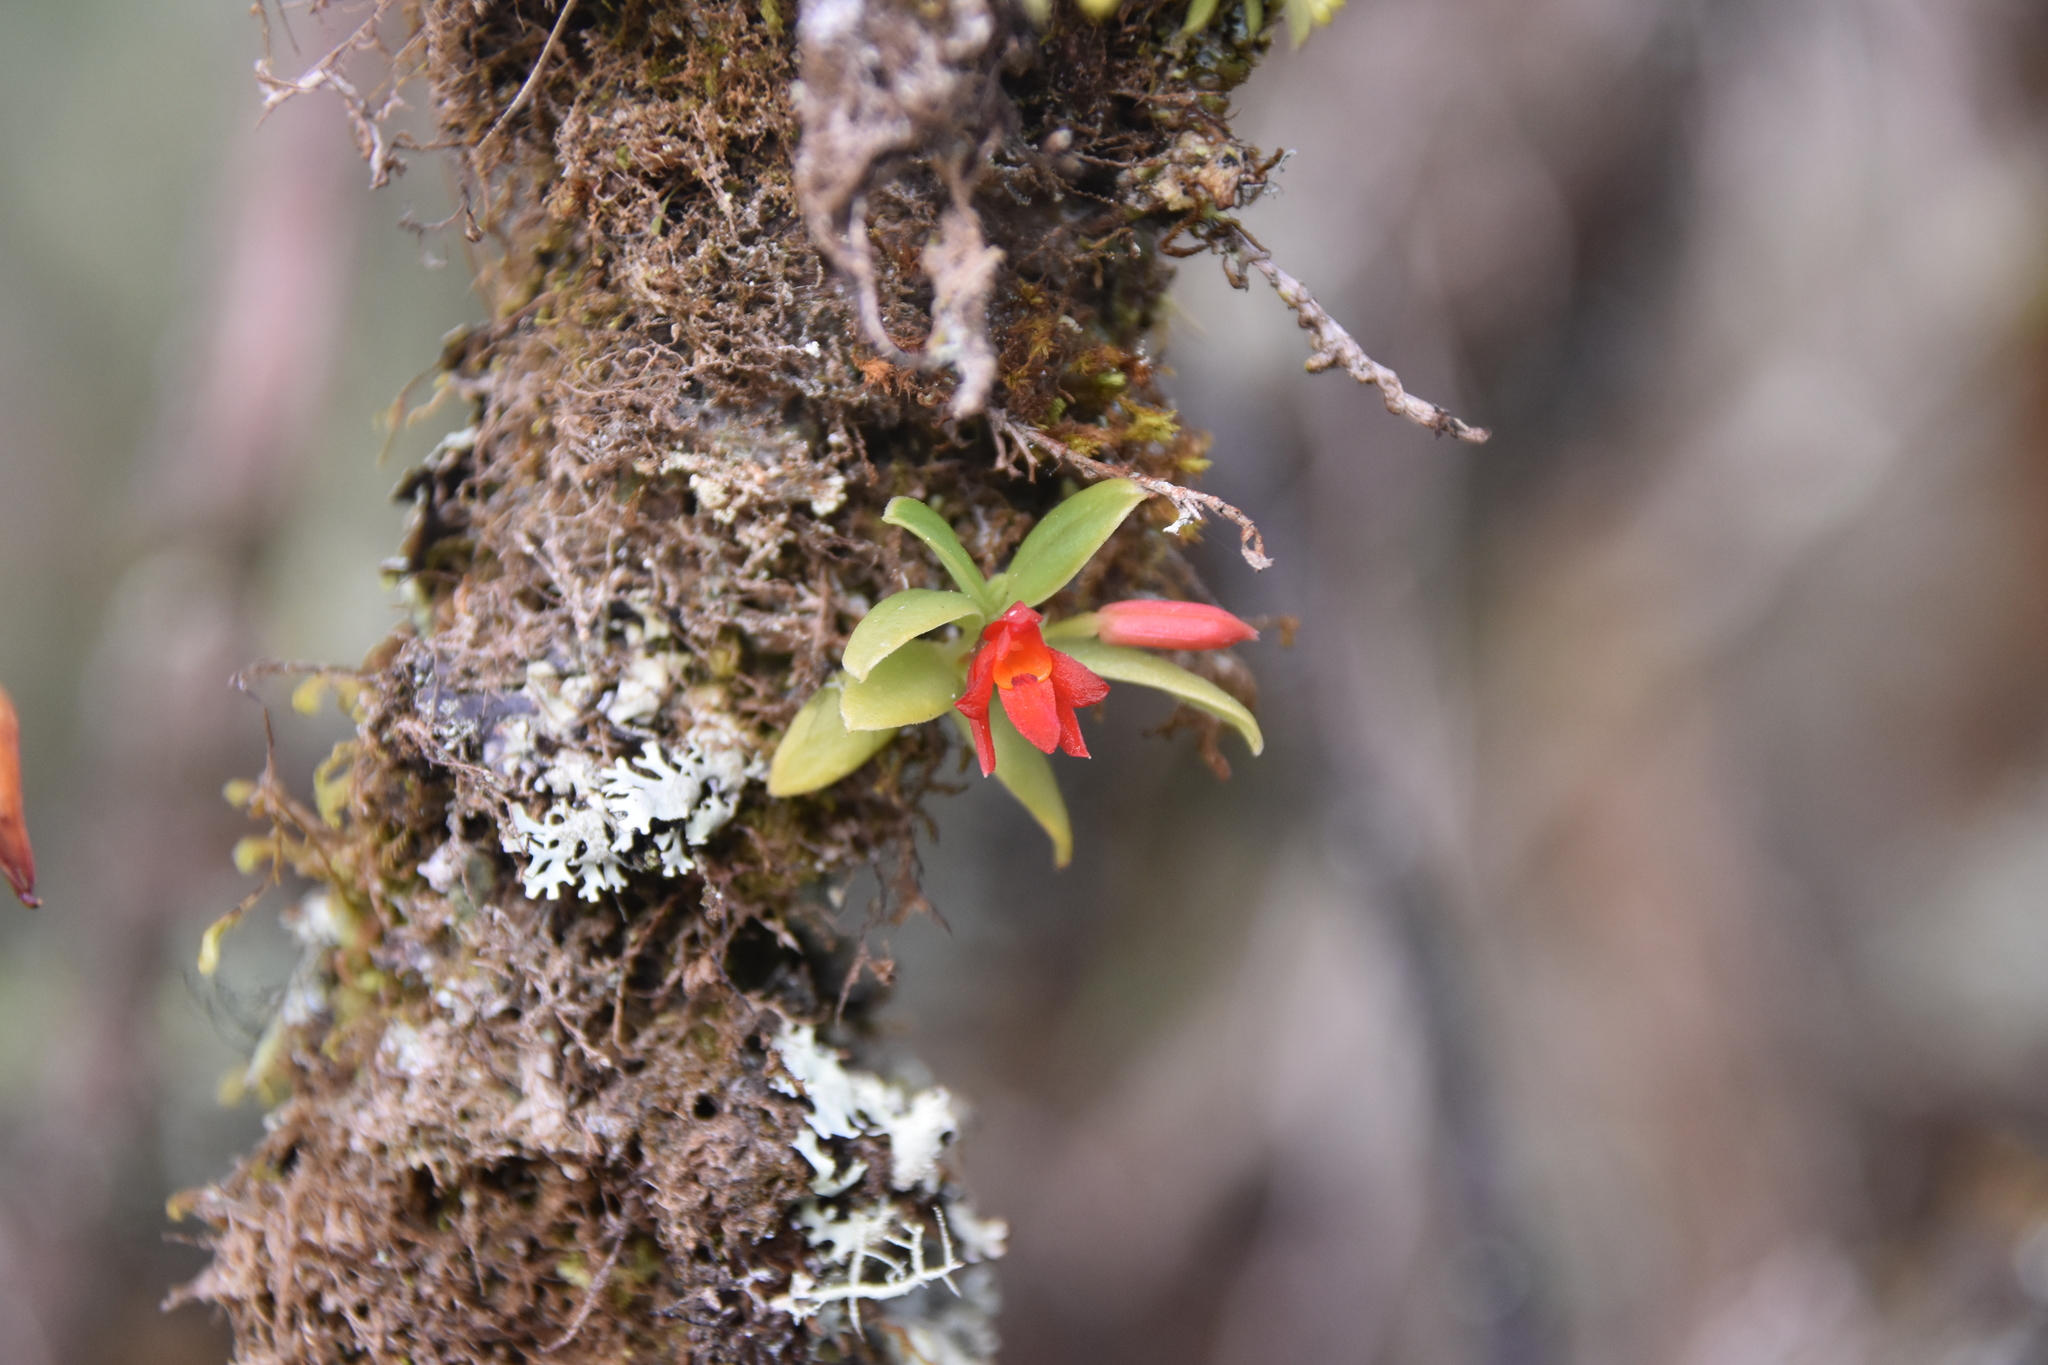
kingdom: Plantae
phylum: Tracheophyta
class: Liliopsida
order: Asparagales
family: Orchidaceae
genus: Fernandezia
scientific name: Fernandezia sanguinea
